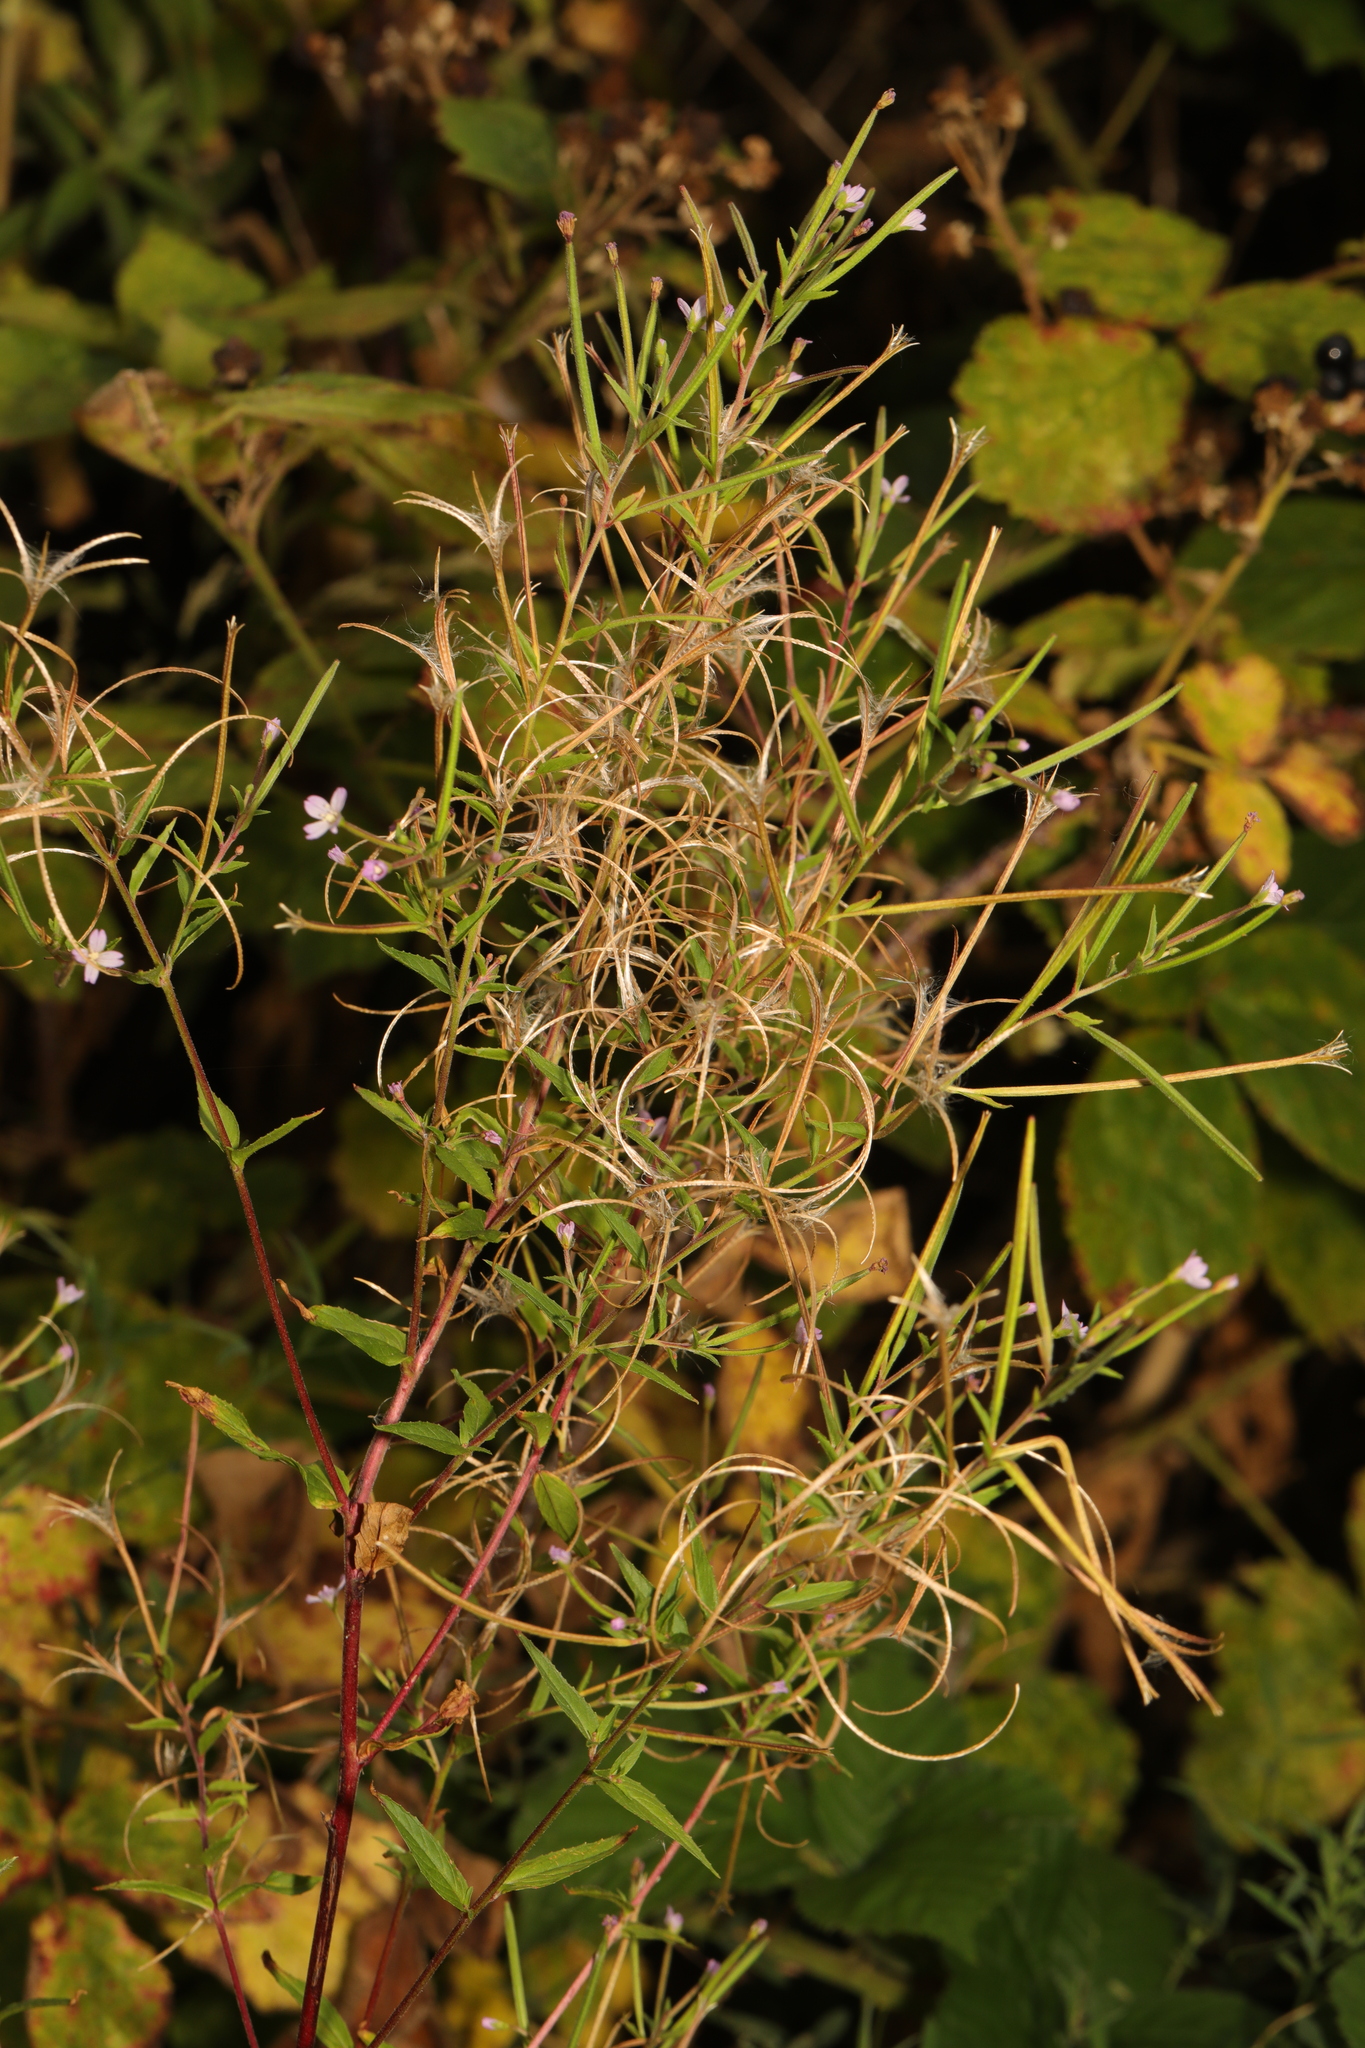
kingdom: Plantae
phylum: Tracheophyta
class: Magnoliopsida
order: Myrtales
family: Onagraceae
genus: Epilobium
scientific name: Epilobium montanum
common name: Broad-leaved willowherb
